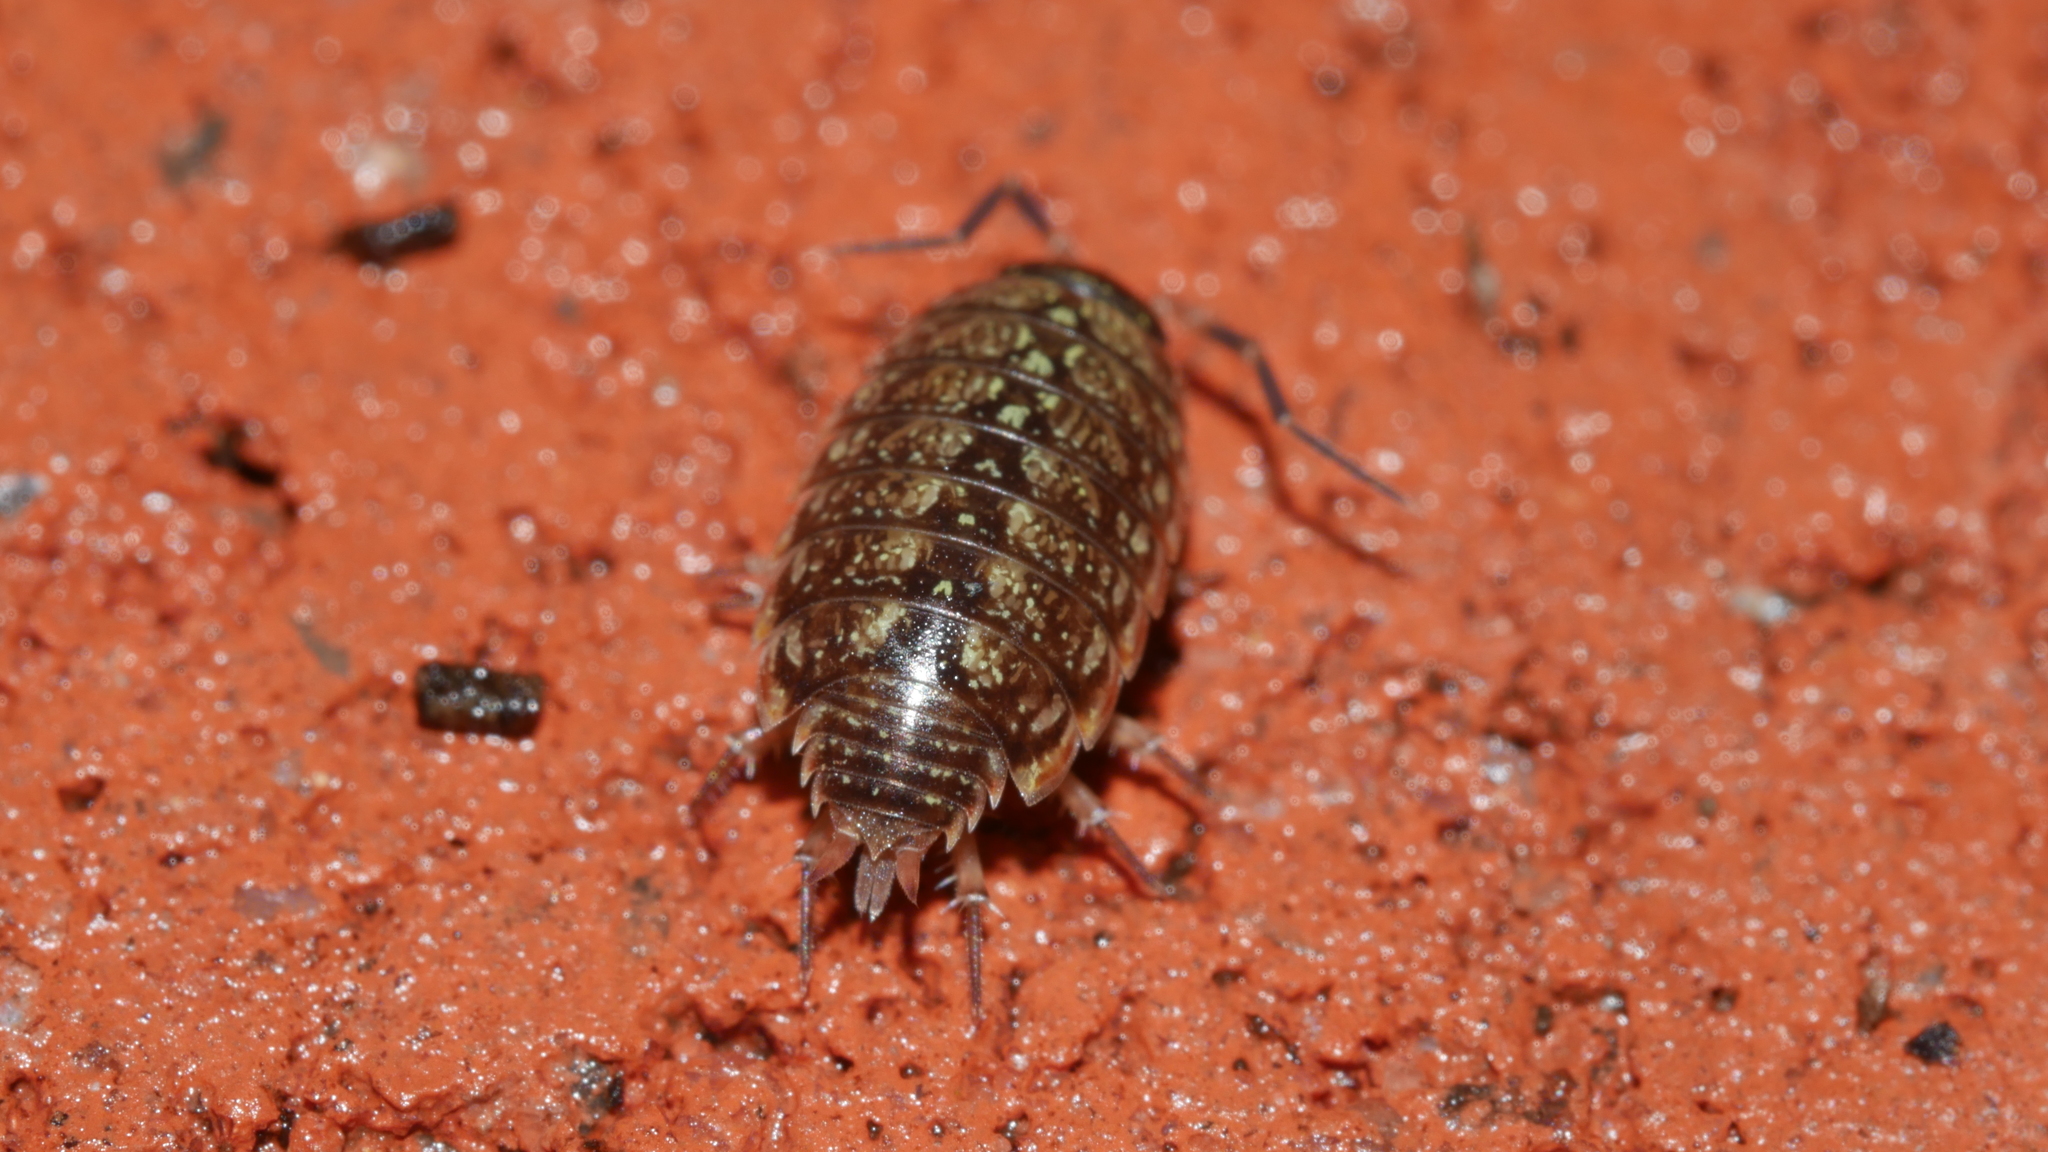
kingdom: Animalia
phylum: Arthropoda
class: Malacostraca
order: Isopoda
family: Philosciidae
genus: Philoscia
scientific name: Philoscia muscorum
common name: Common striped woodlouse
